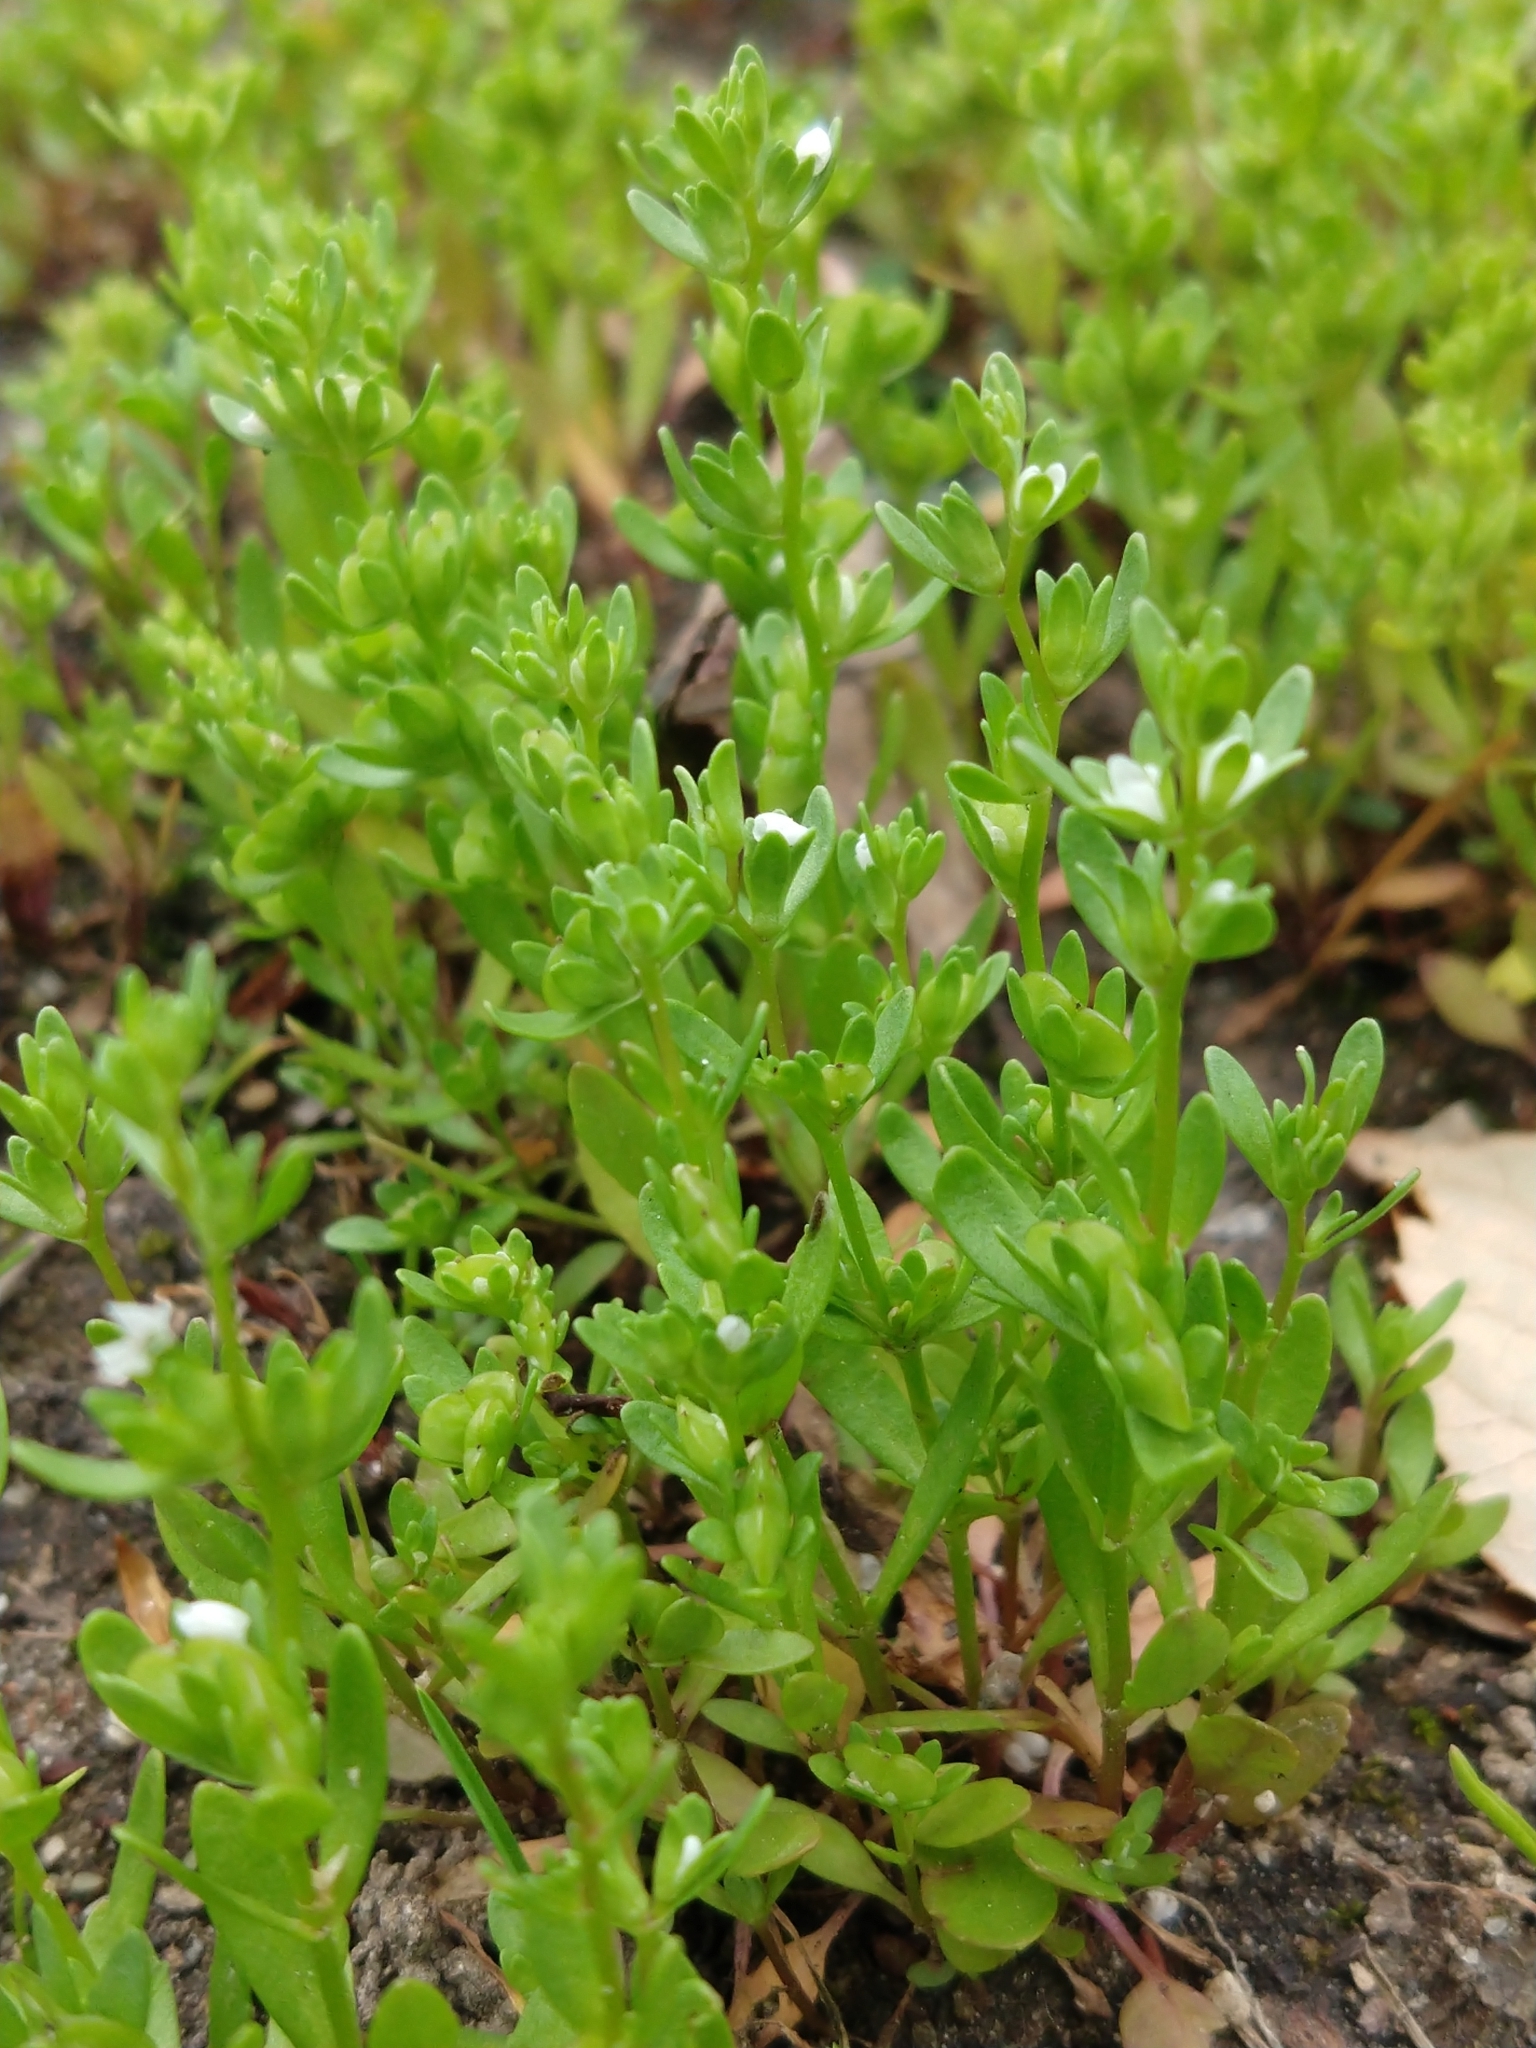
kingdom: Plantae
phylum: Tracheophyta
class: Magnoliopsida
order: Lamiales
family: Plantaginaceae
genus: Veronica
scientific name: Veronica peregrina
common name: Neckweed
